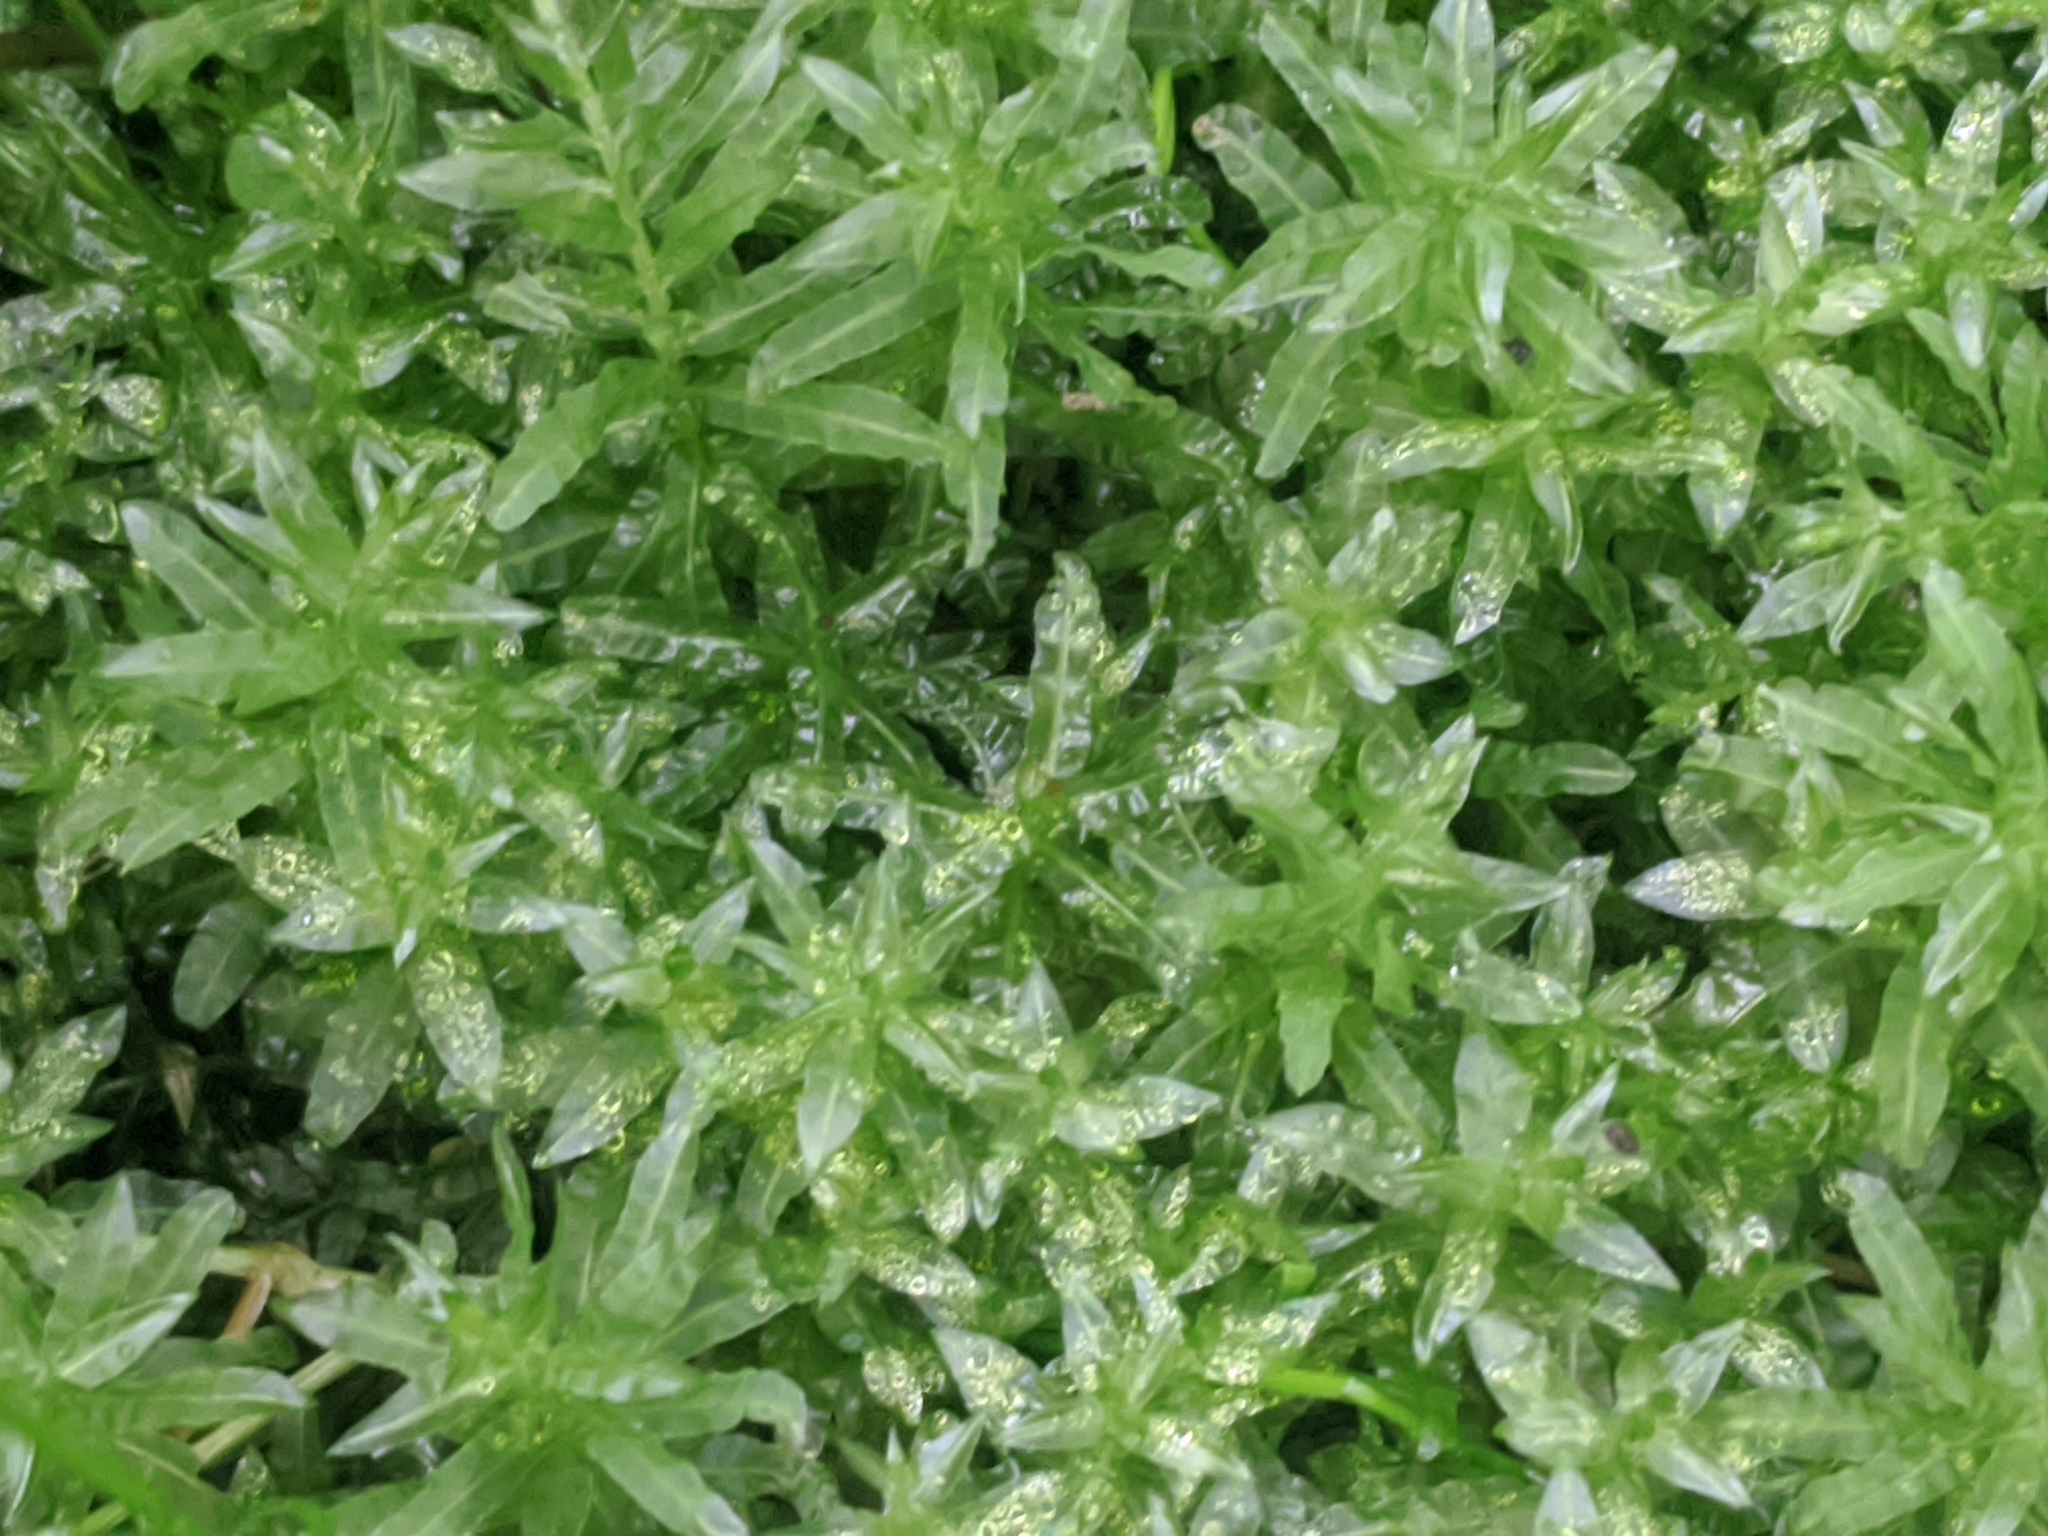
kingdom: Plantae
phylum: Bryophyta
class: Bryopsida
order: Bryales
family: Mniaceae
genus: Plagiomnium
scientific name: Plagiomnium undulatum
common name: Hart's-tongue thyme-moss
